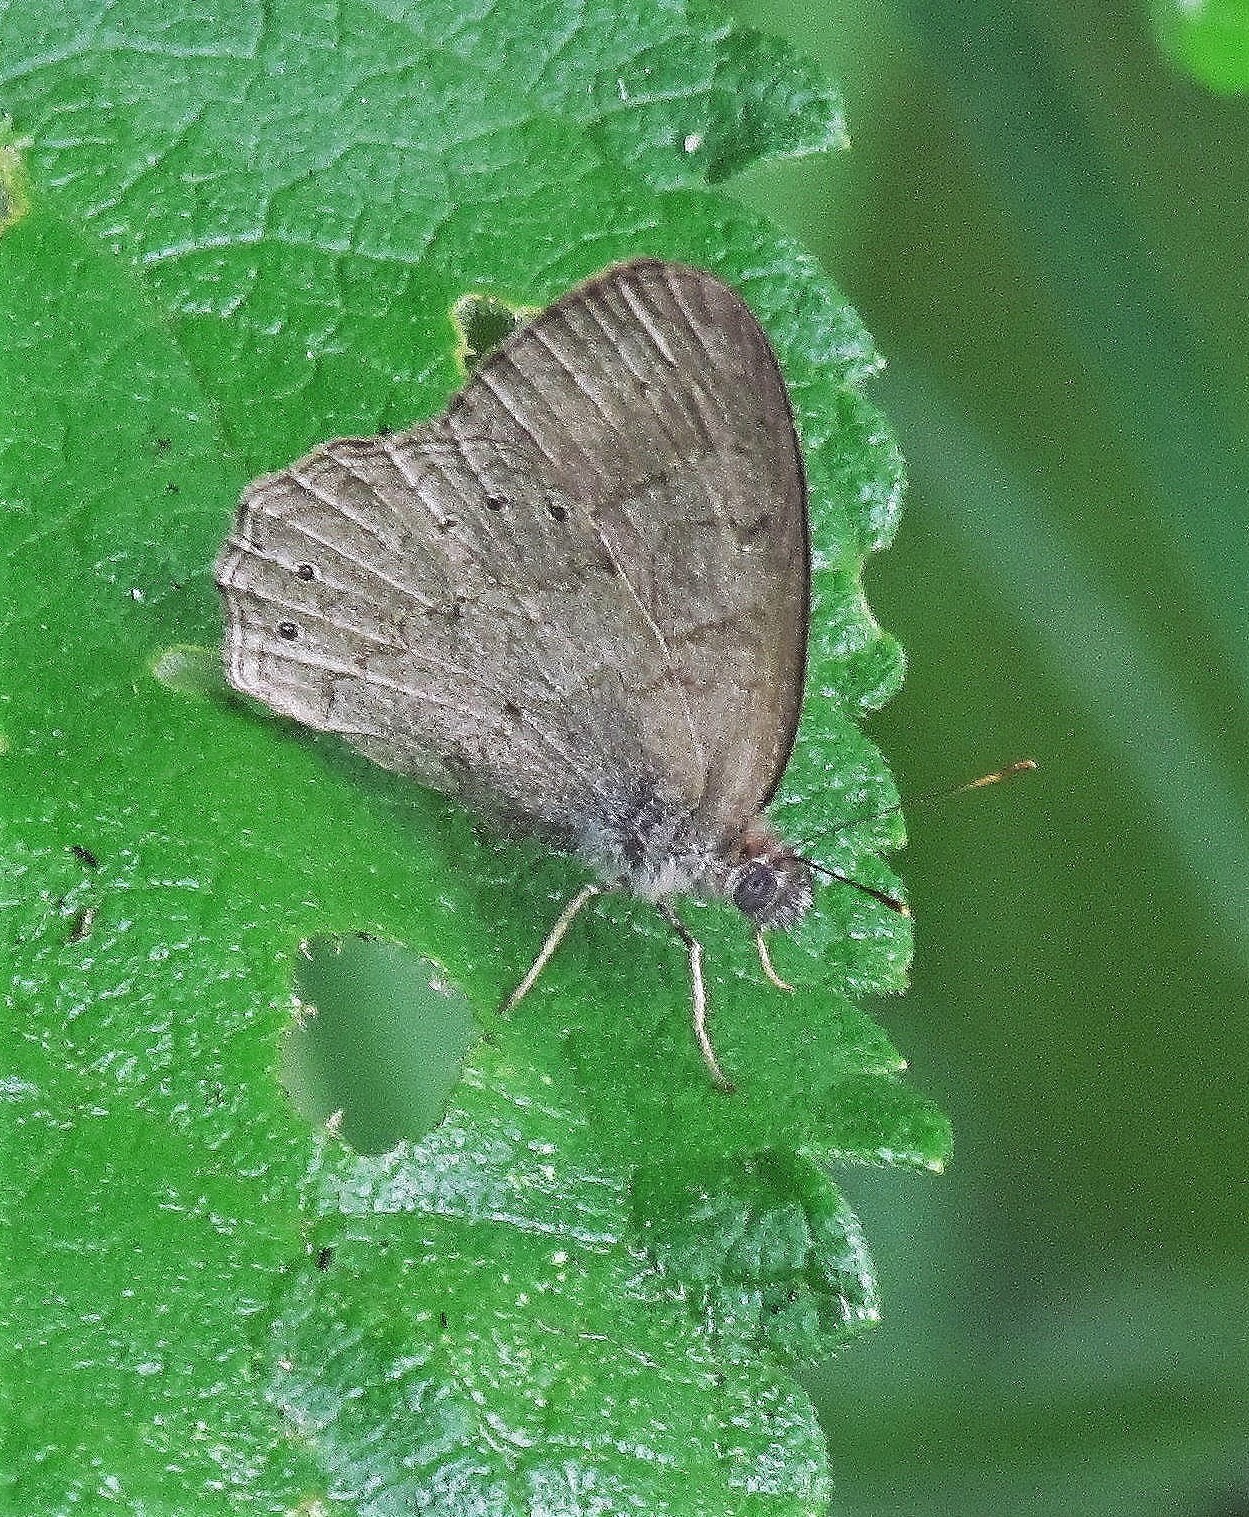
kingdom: Animalia
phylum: Arthropoda
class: Insecta
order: Lepidoptera
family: Nymphalidae
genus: Paryphthimoides
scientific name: Paryphthimoides poltys
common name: Poltys satyr
